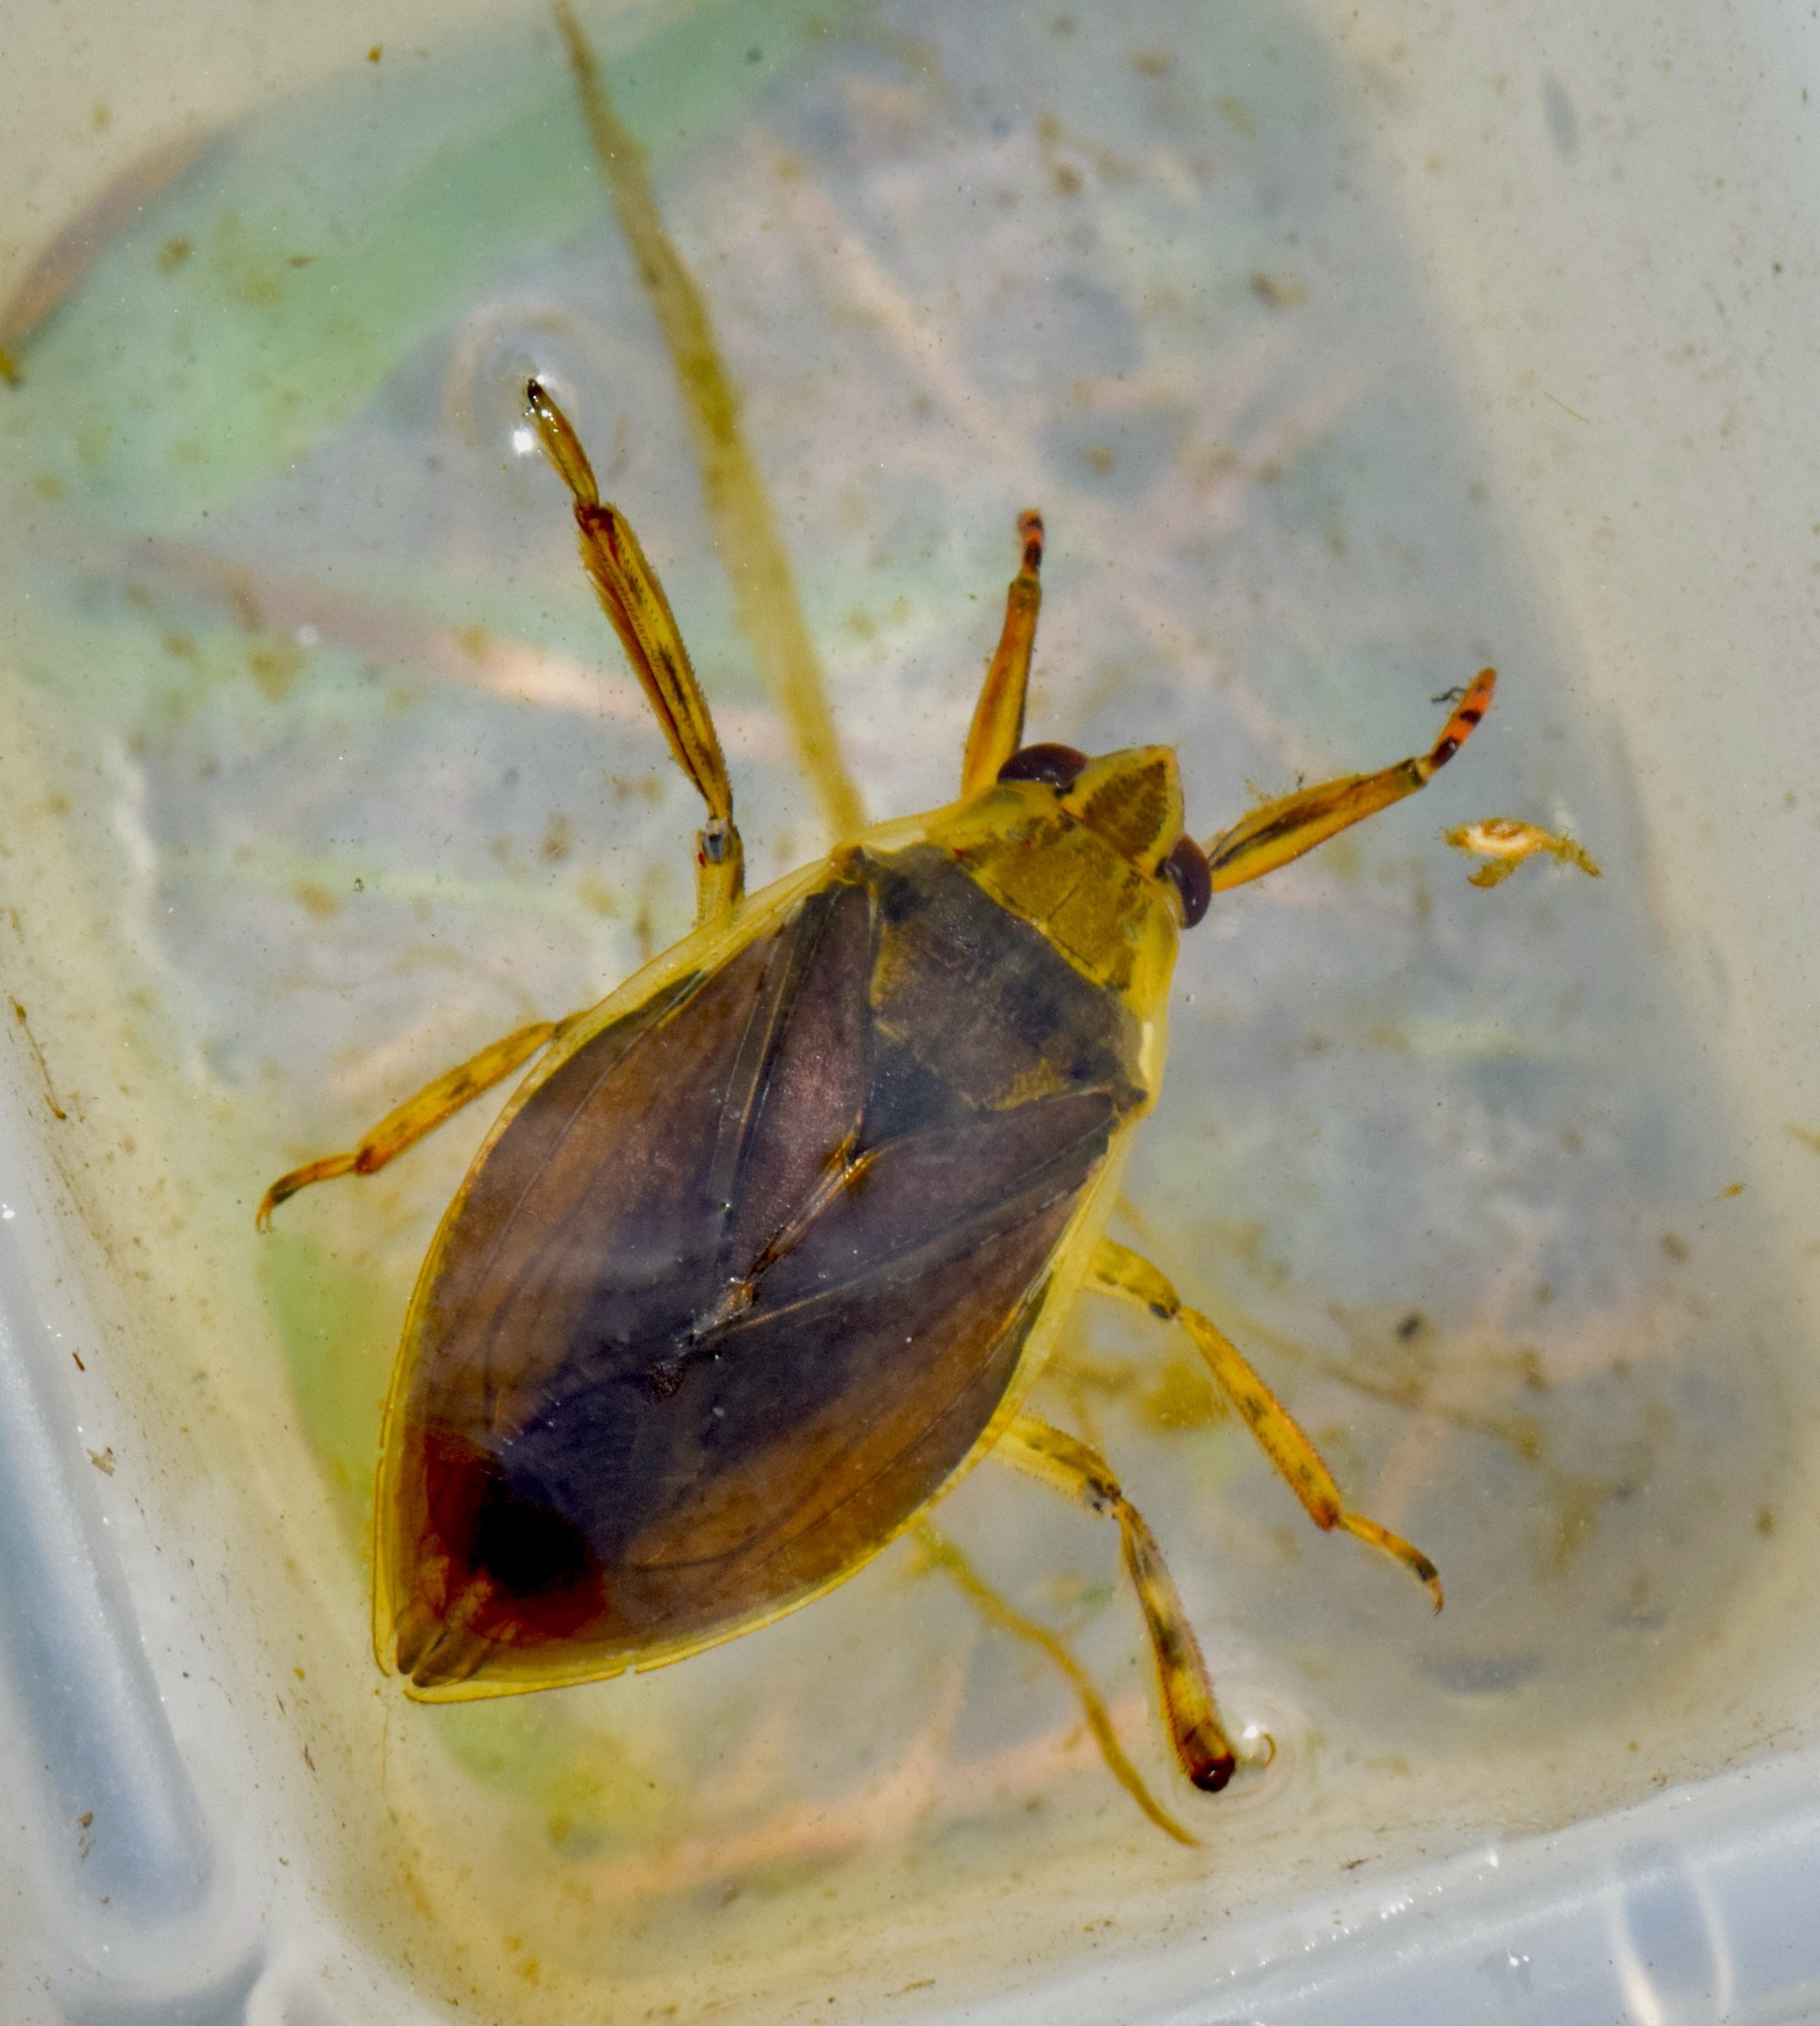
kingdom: Animalia
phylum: Arthropoda
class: Insecta
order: Hemiptera
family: Belostomatidae
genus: Belostoma
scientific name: Belostoma flumineum
